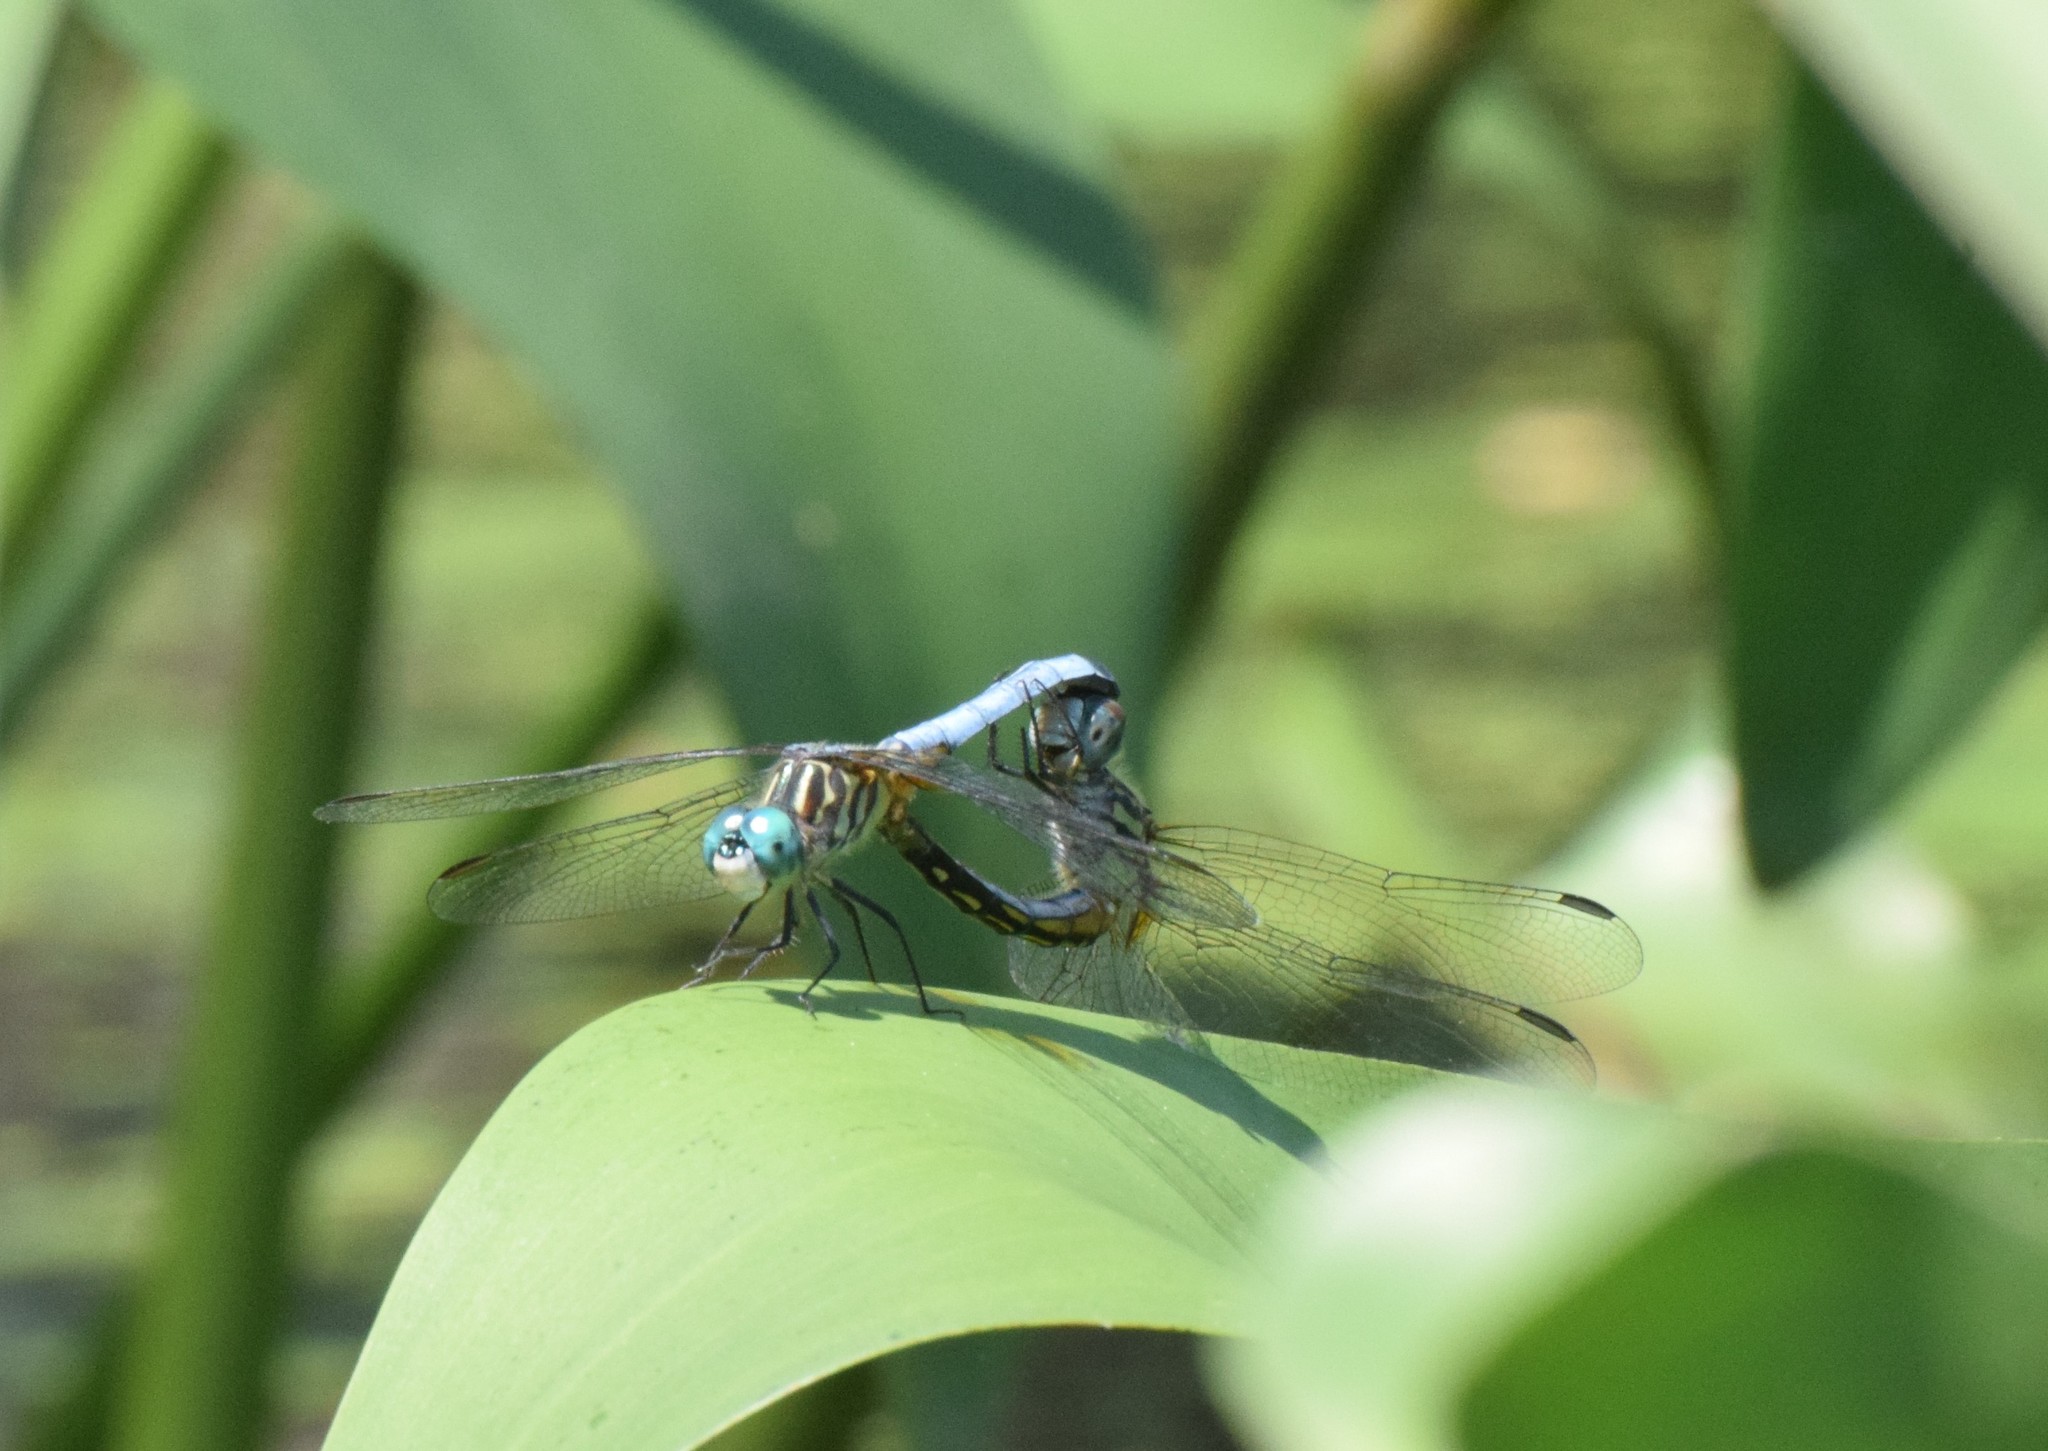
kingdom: Animalia
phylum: Arthropoda
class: Insecta
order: Odonata
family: Libellulidae
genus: Pachydiplax
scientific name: Pachydiplax longipennis
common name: Blue dasher
